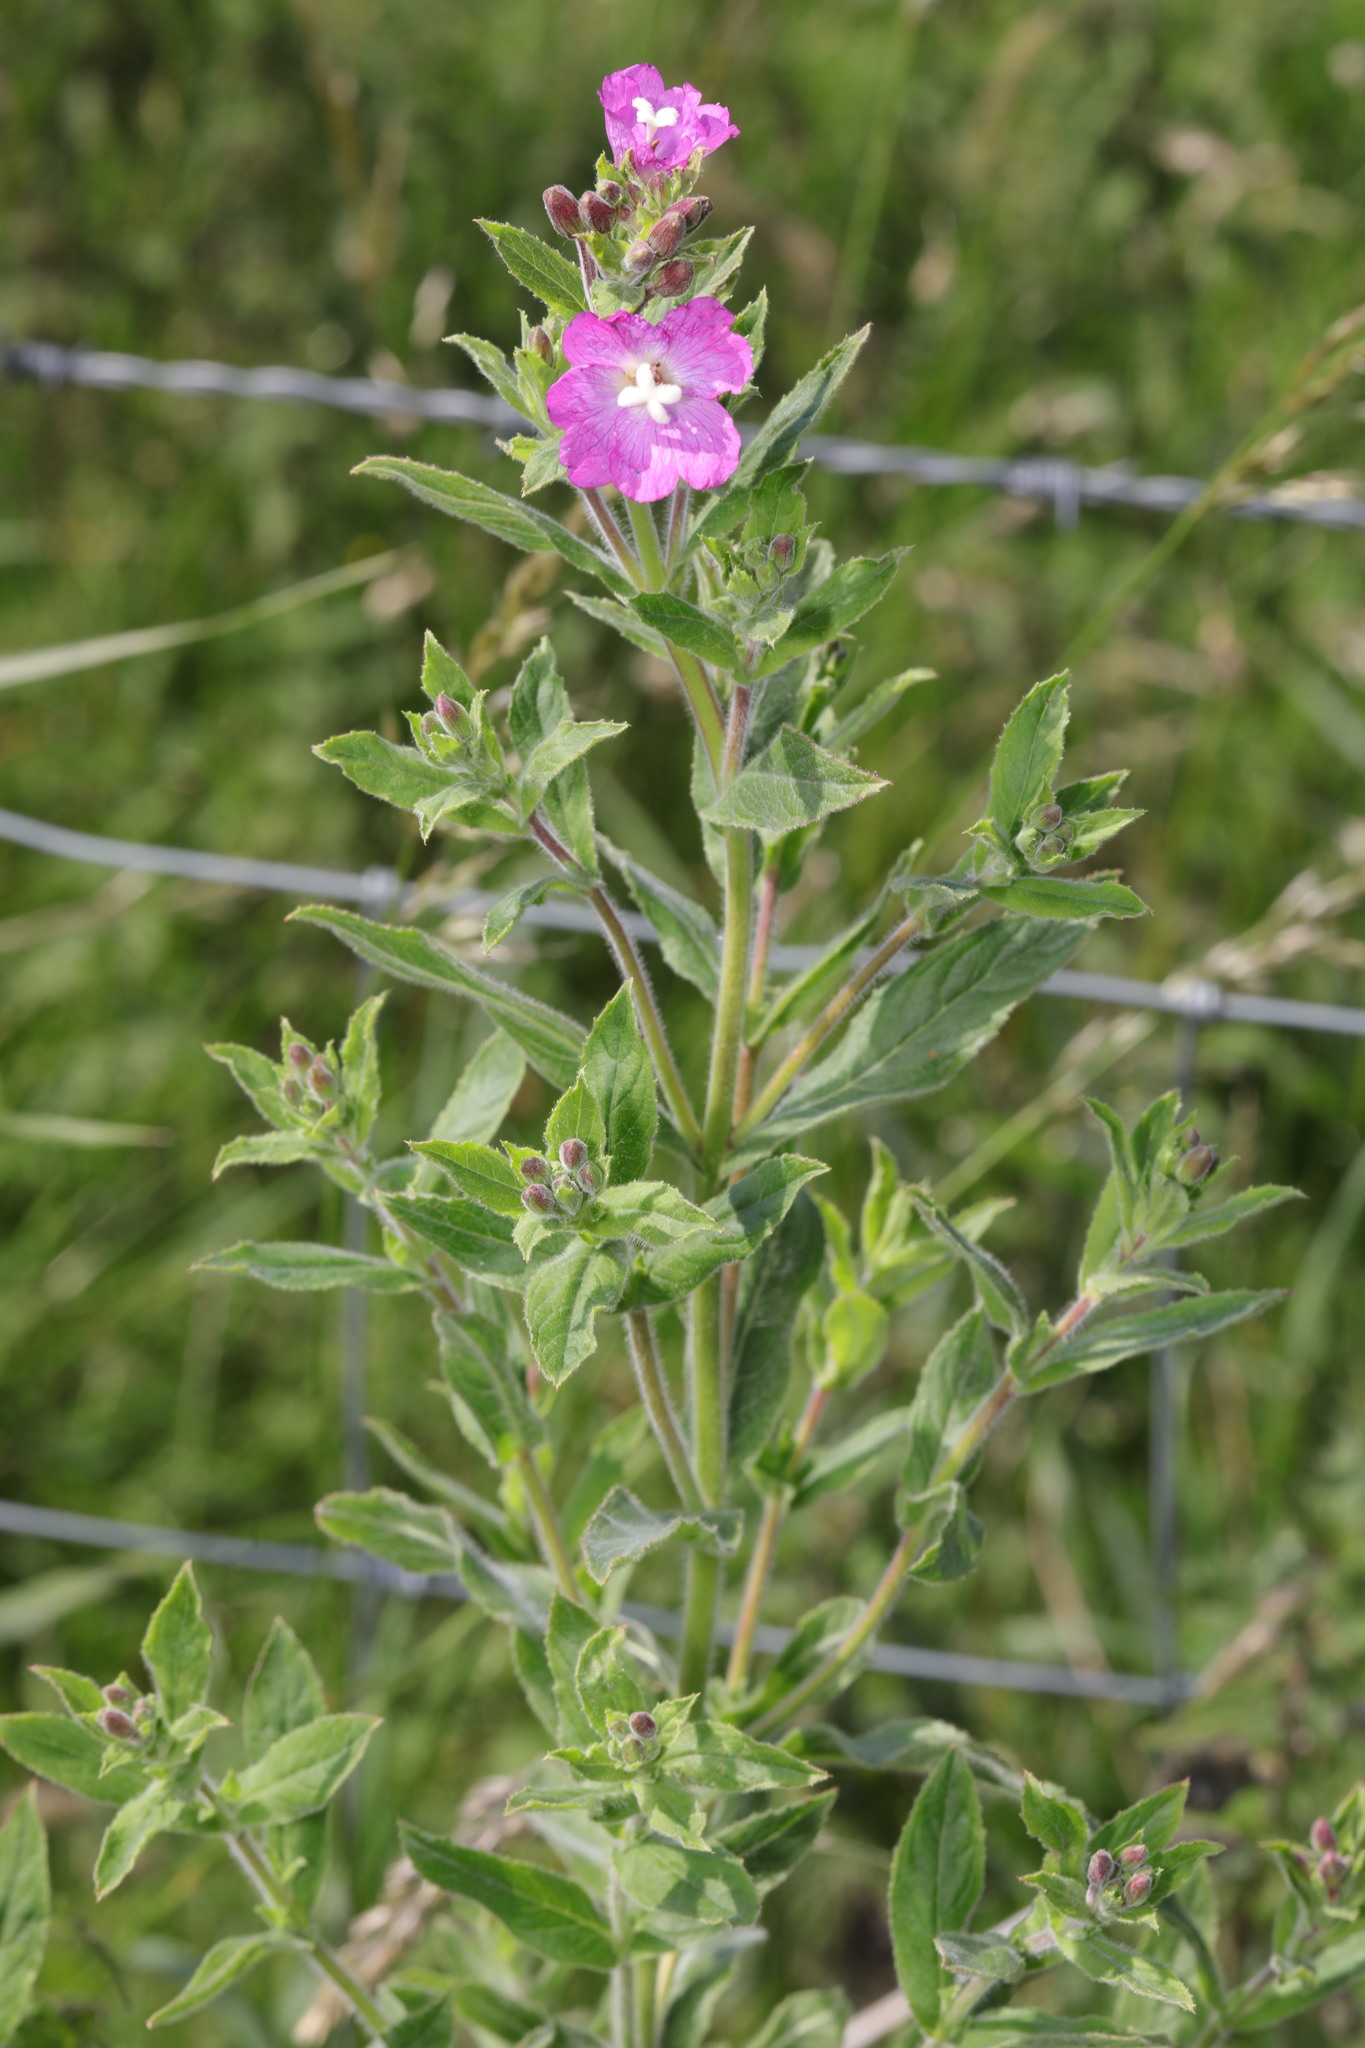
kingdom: Plantae
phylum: Tracheophyta
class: Magnoliopsida
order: Myrtales
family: Onagraceae
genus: Epilobium
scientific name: Epilobium hirsutum
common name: Great willowherb
